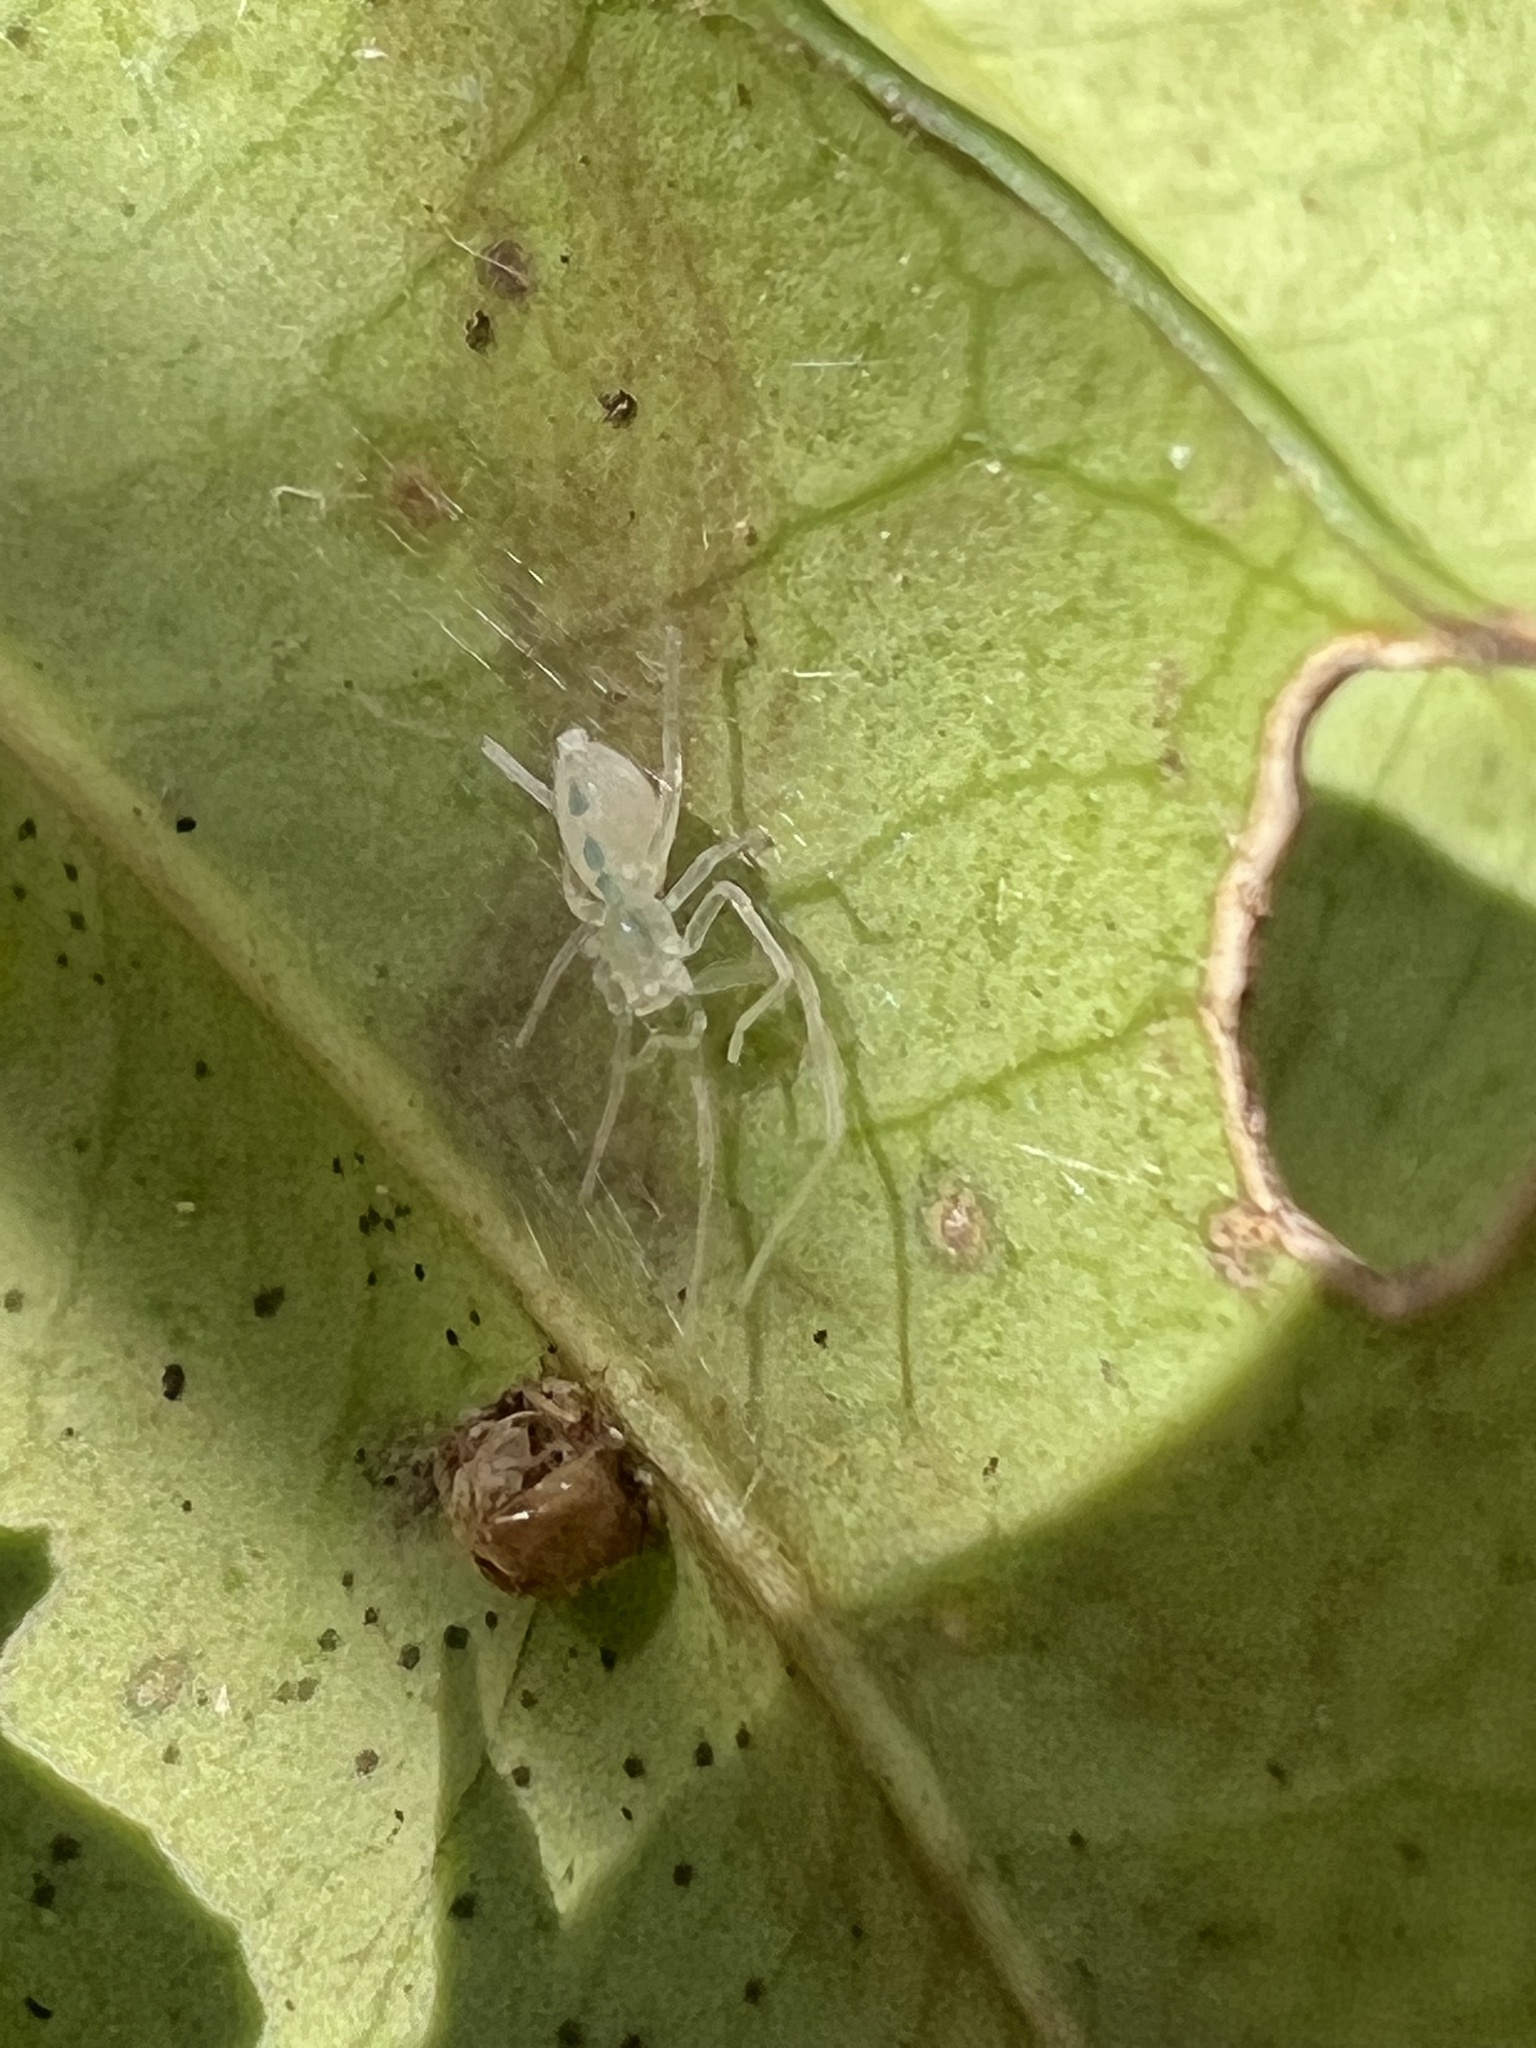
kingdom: Animalia
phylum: Arthropoda
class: Arachnida
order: Araneae
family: Anyphaenidae
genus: Wulfila
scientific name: Wulfila albens
